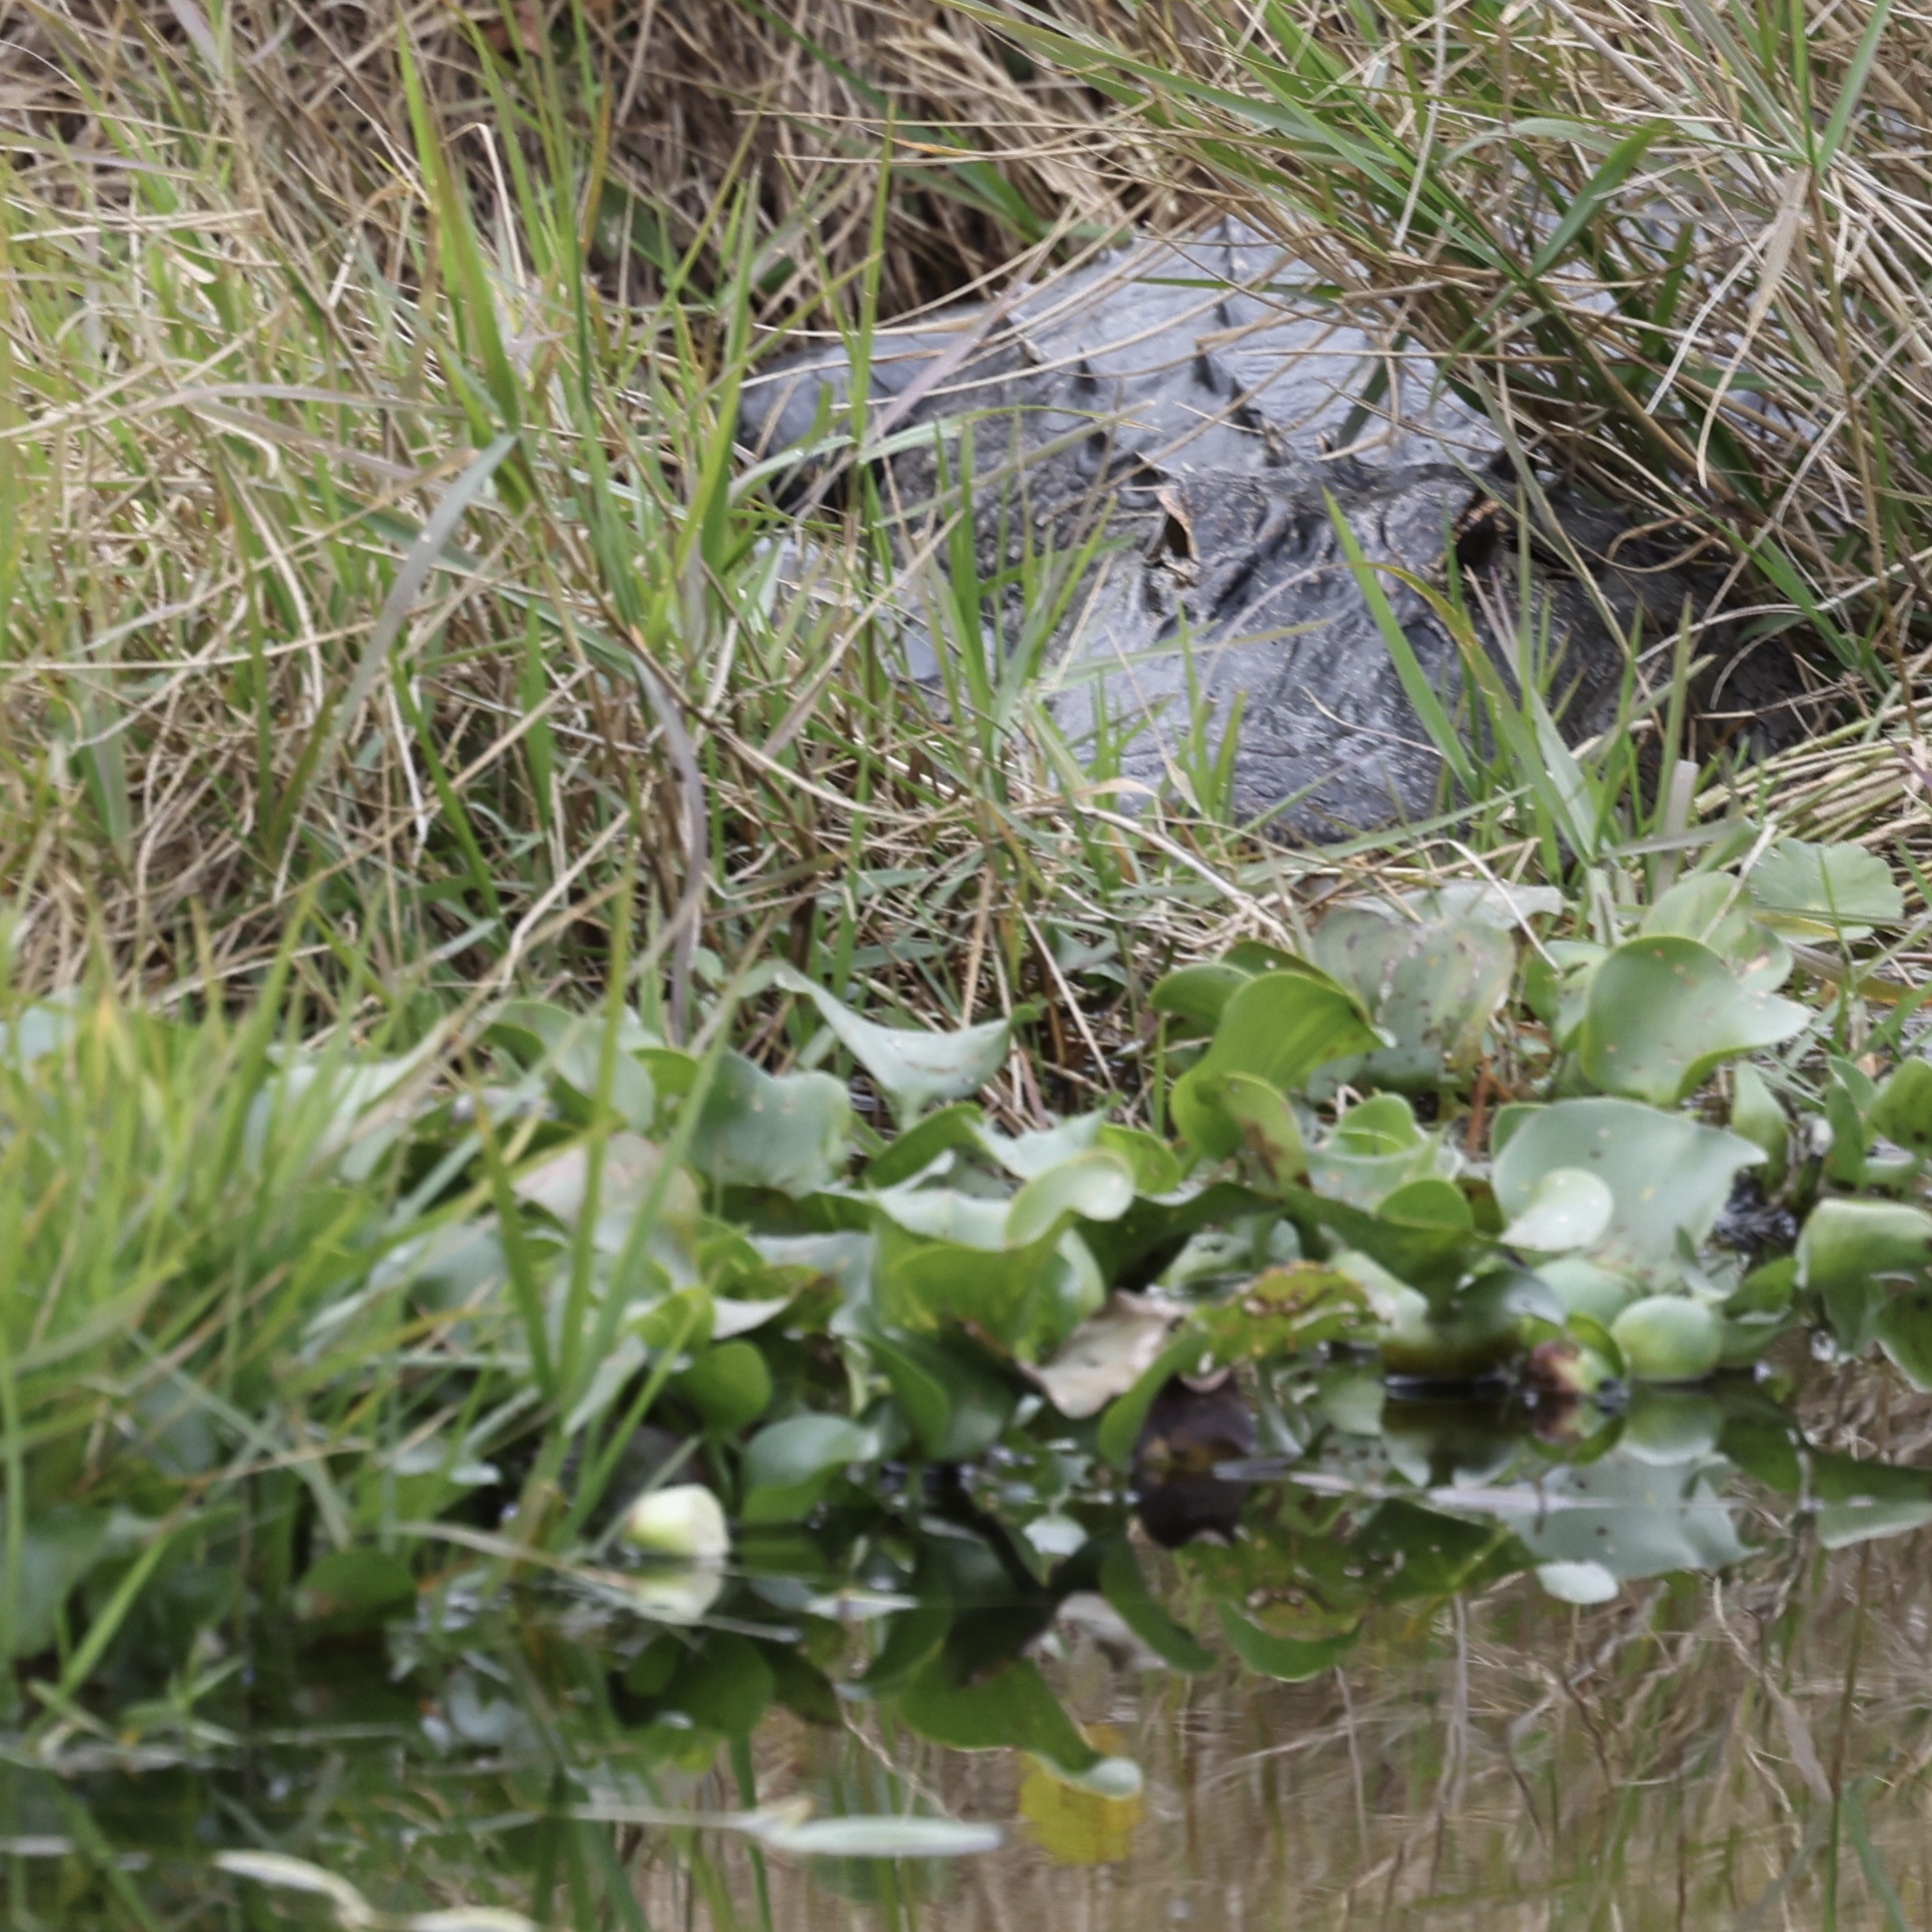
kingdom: Animalia
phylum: Chordata
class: Crocodylia
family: Alligatoridae
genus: Alligator
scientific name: Alligator mississippiensis
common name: American alligator
